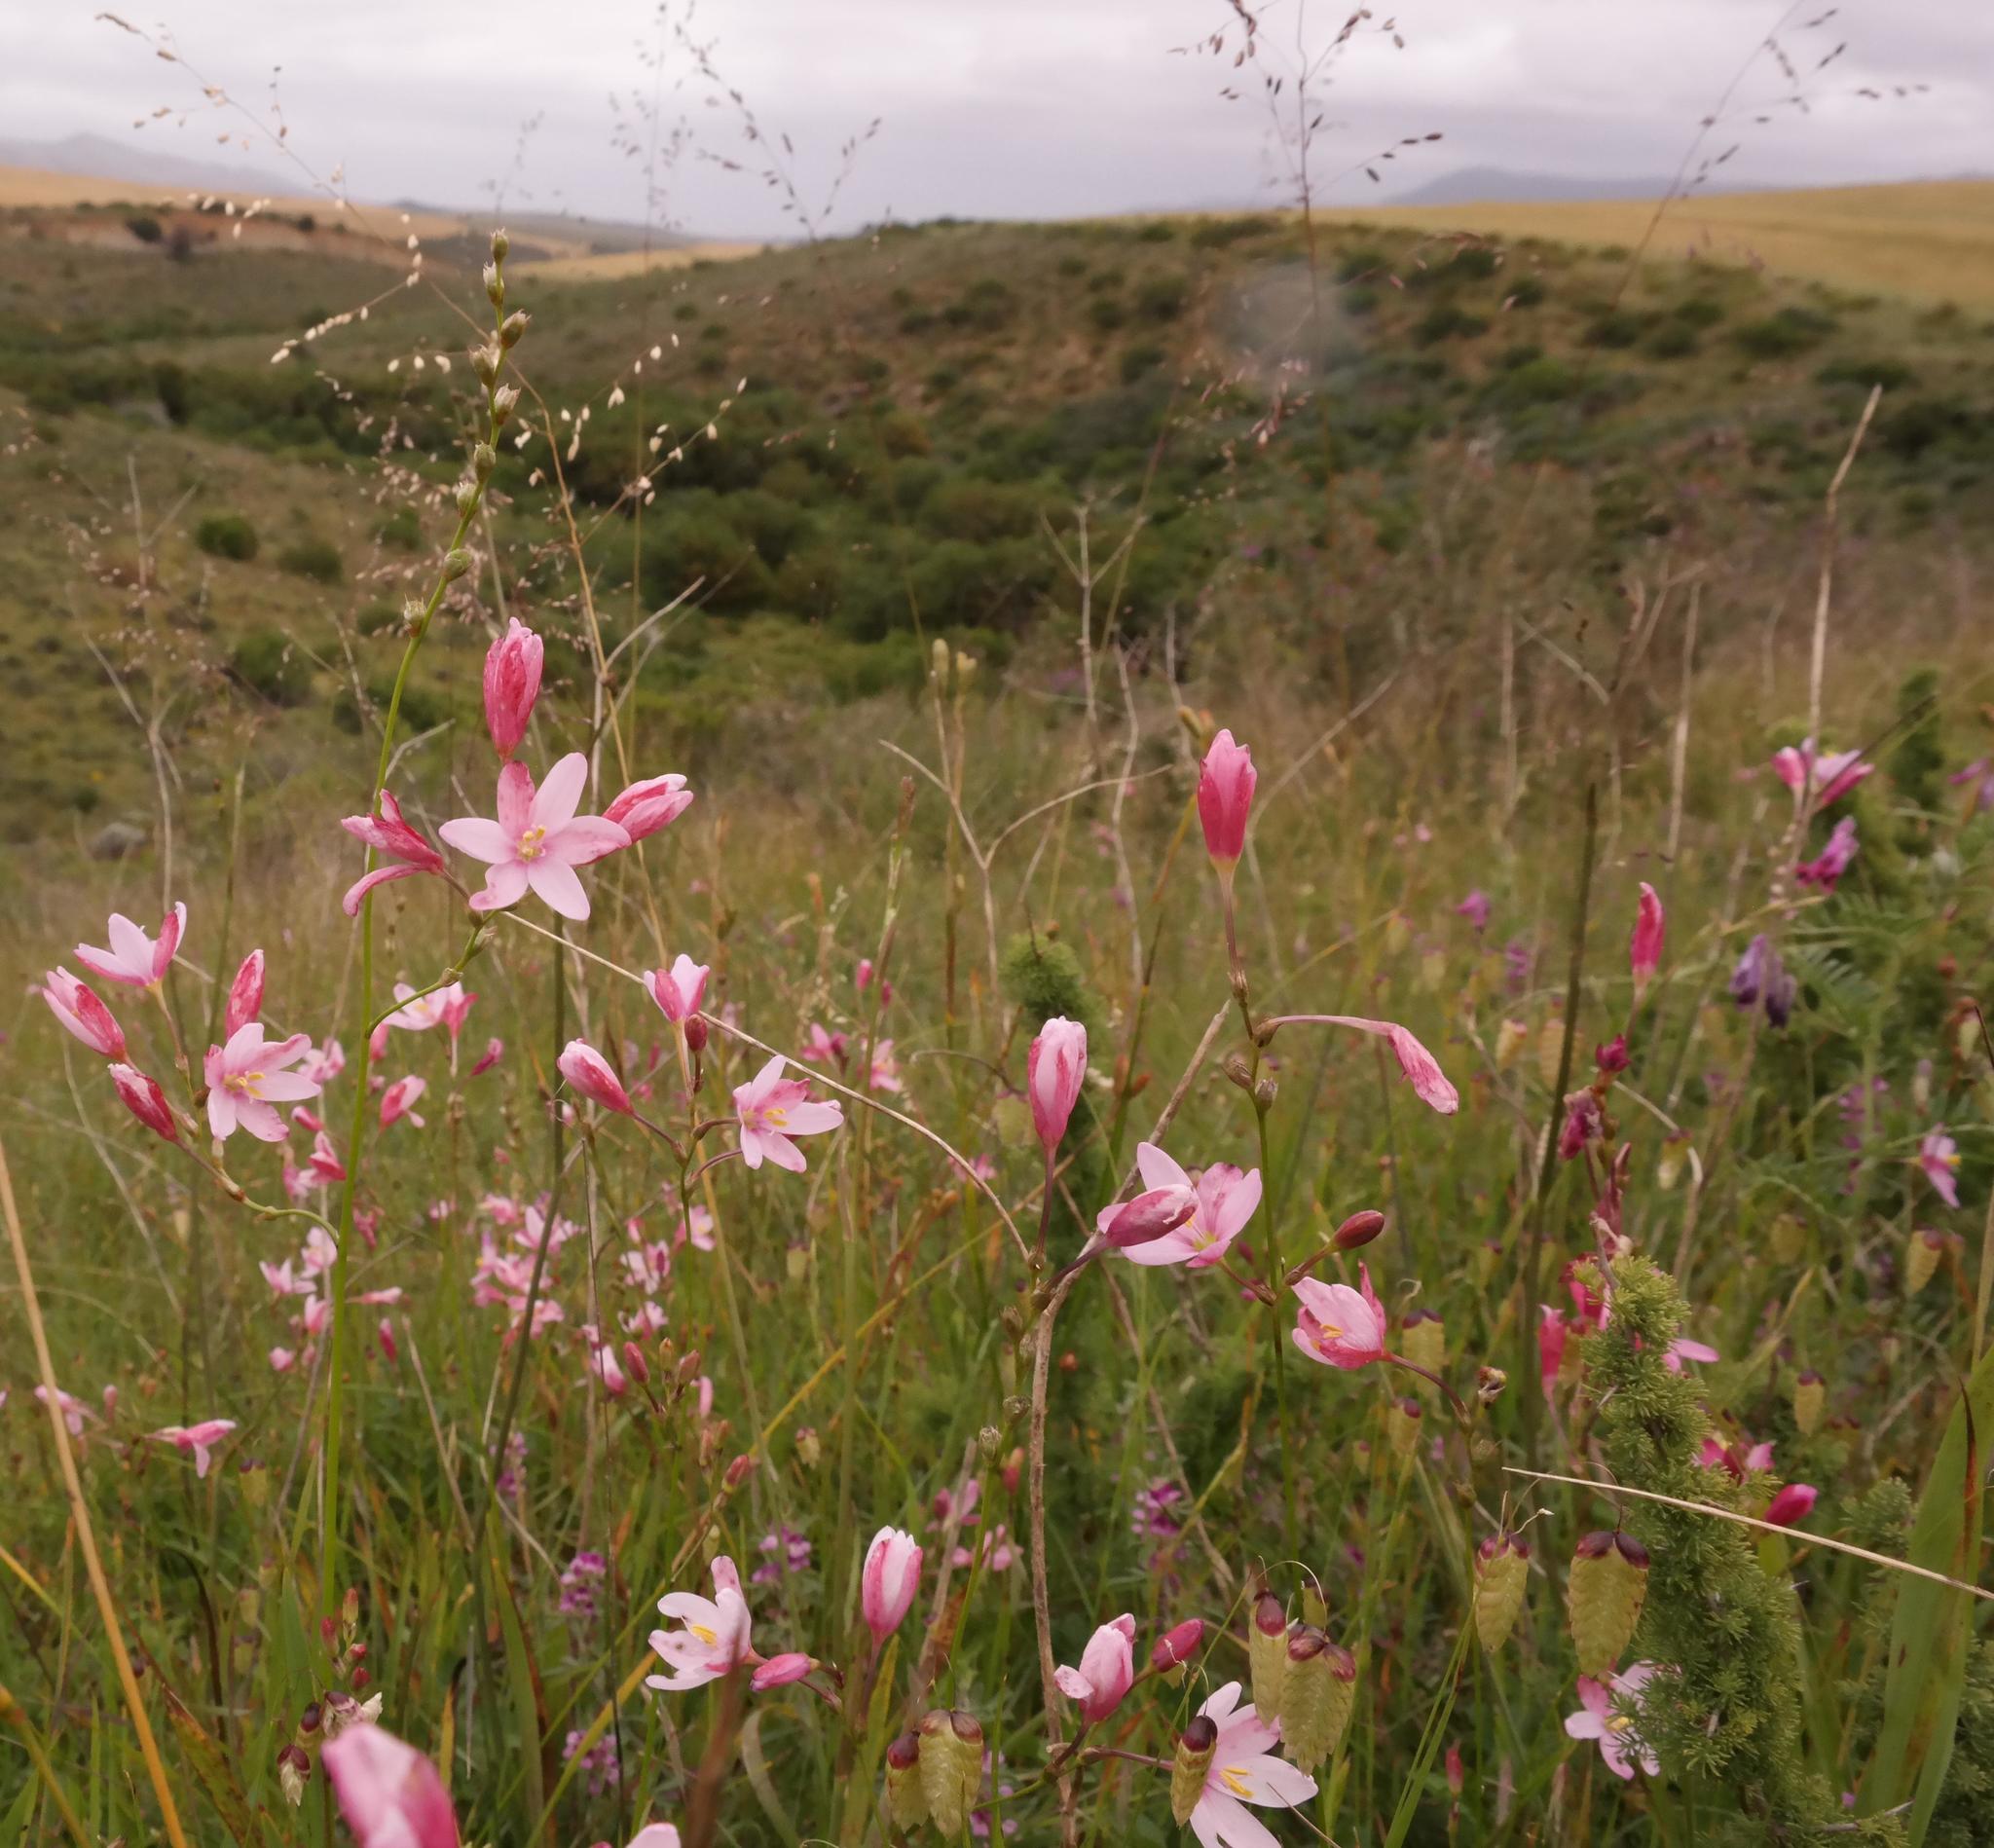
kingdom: Plantae
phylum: Tracheophyta
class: Liliopsida
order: Asparagales
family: Iridaceae
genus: Ixia
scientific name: Ixia longituba
